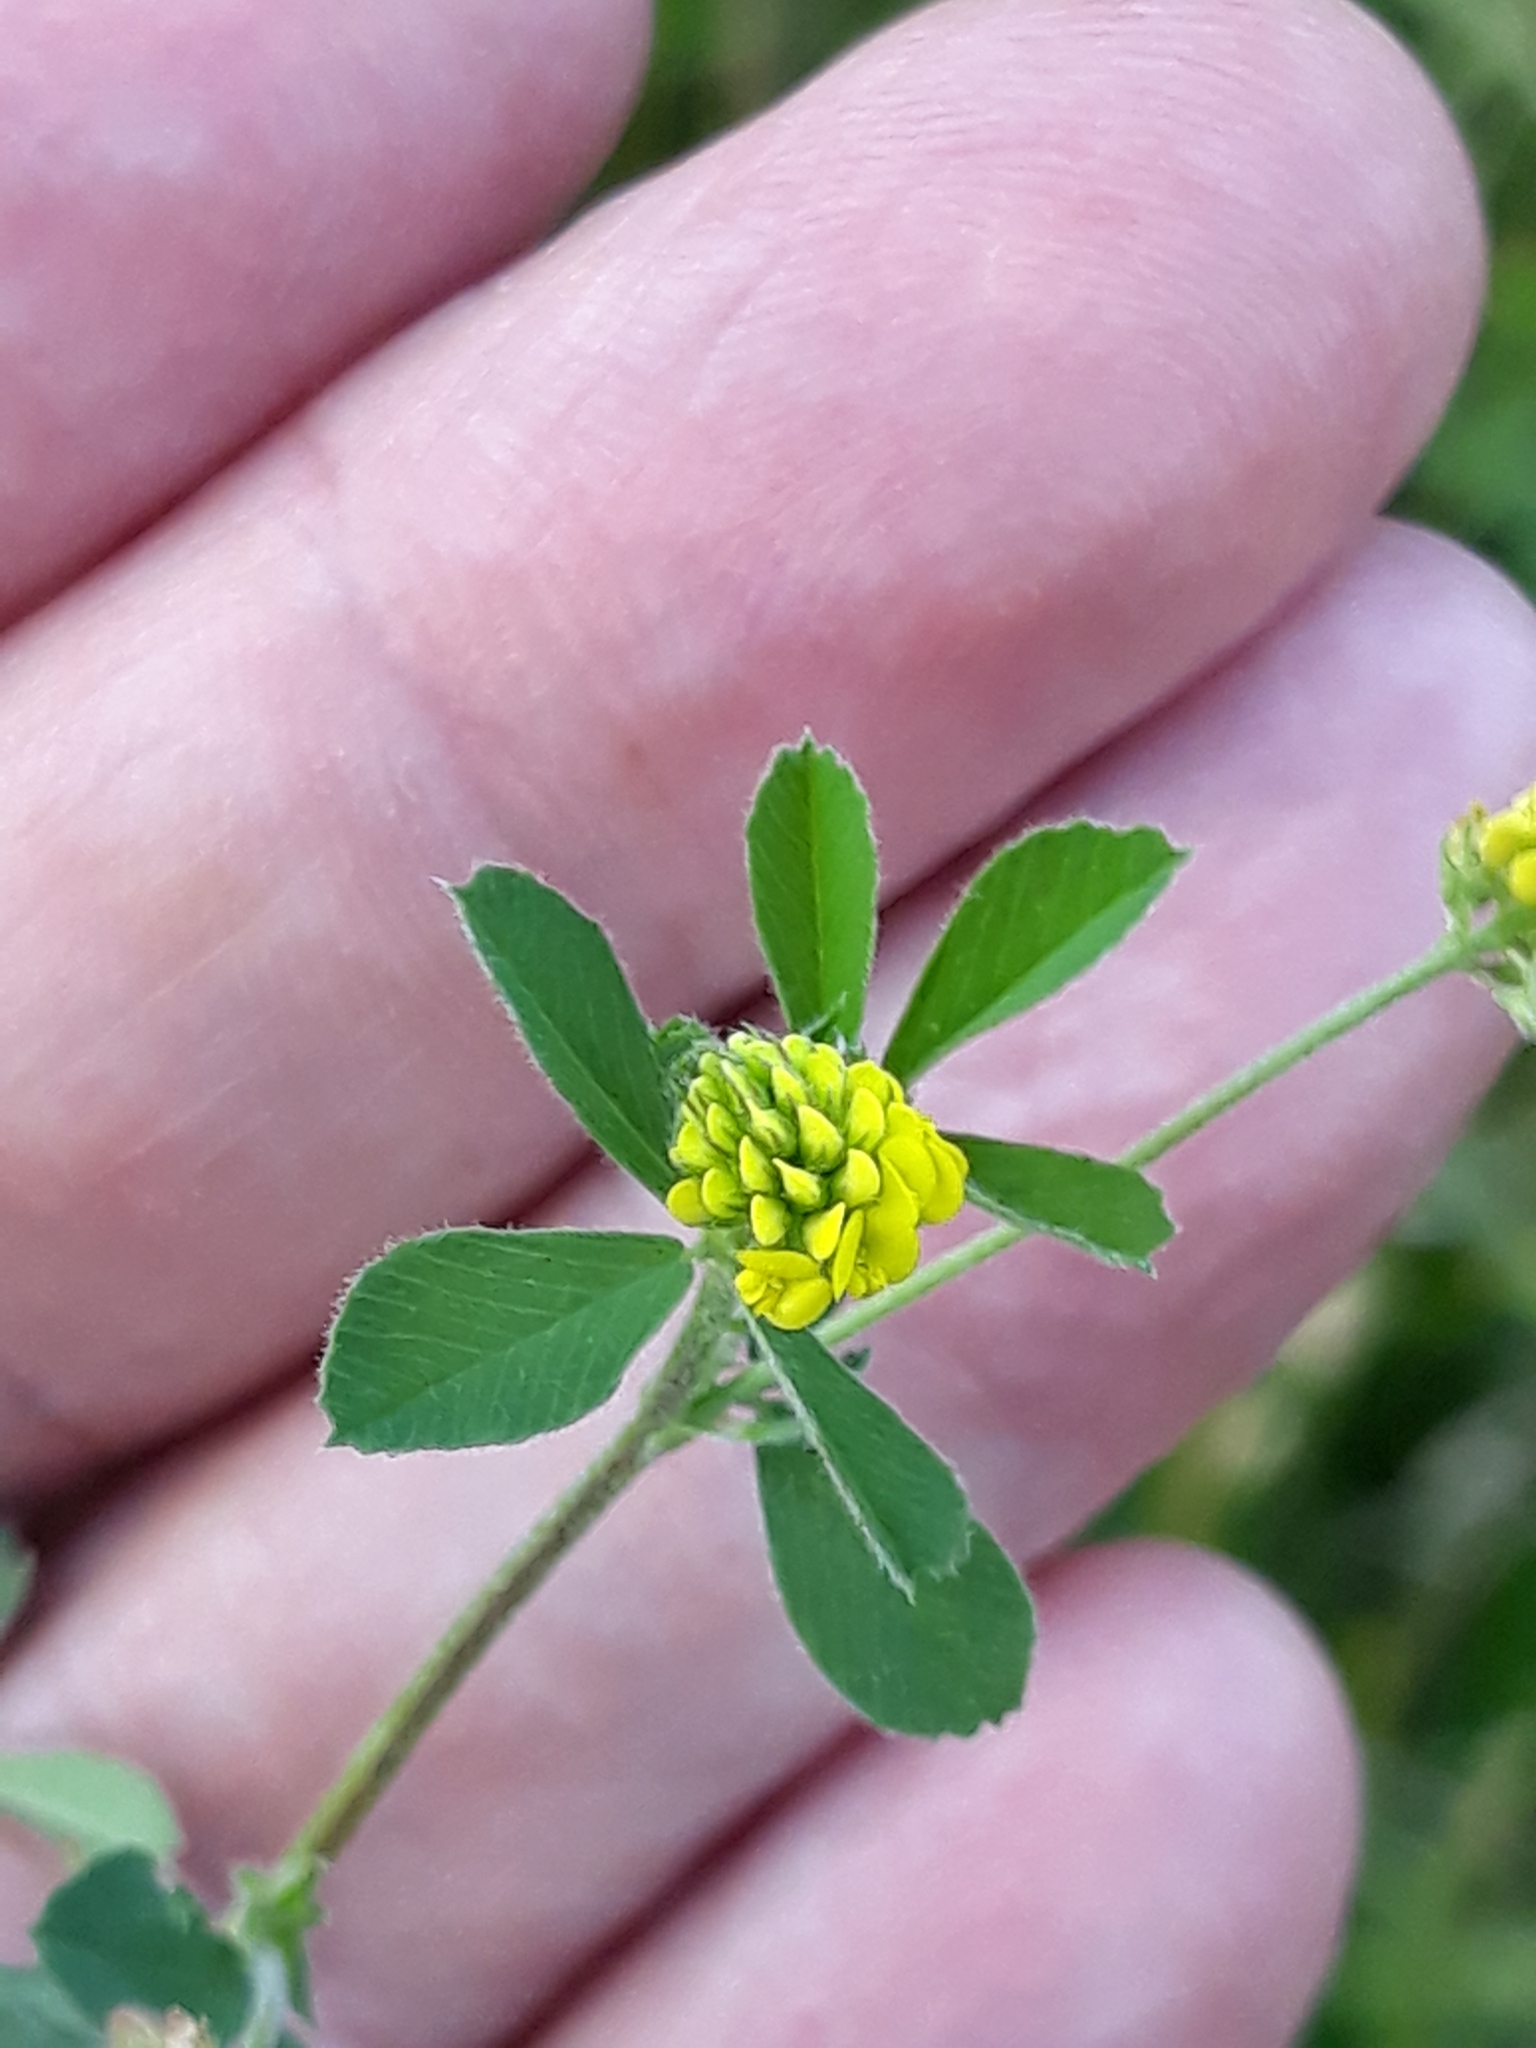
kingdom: Plantae
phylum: Tracheophyta
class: Magnoliopsida
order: Fabales
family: Fabaceae
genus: Medicago
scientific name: Medicago lupulina
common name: Black medick
